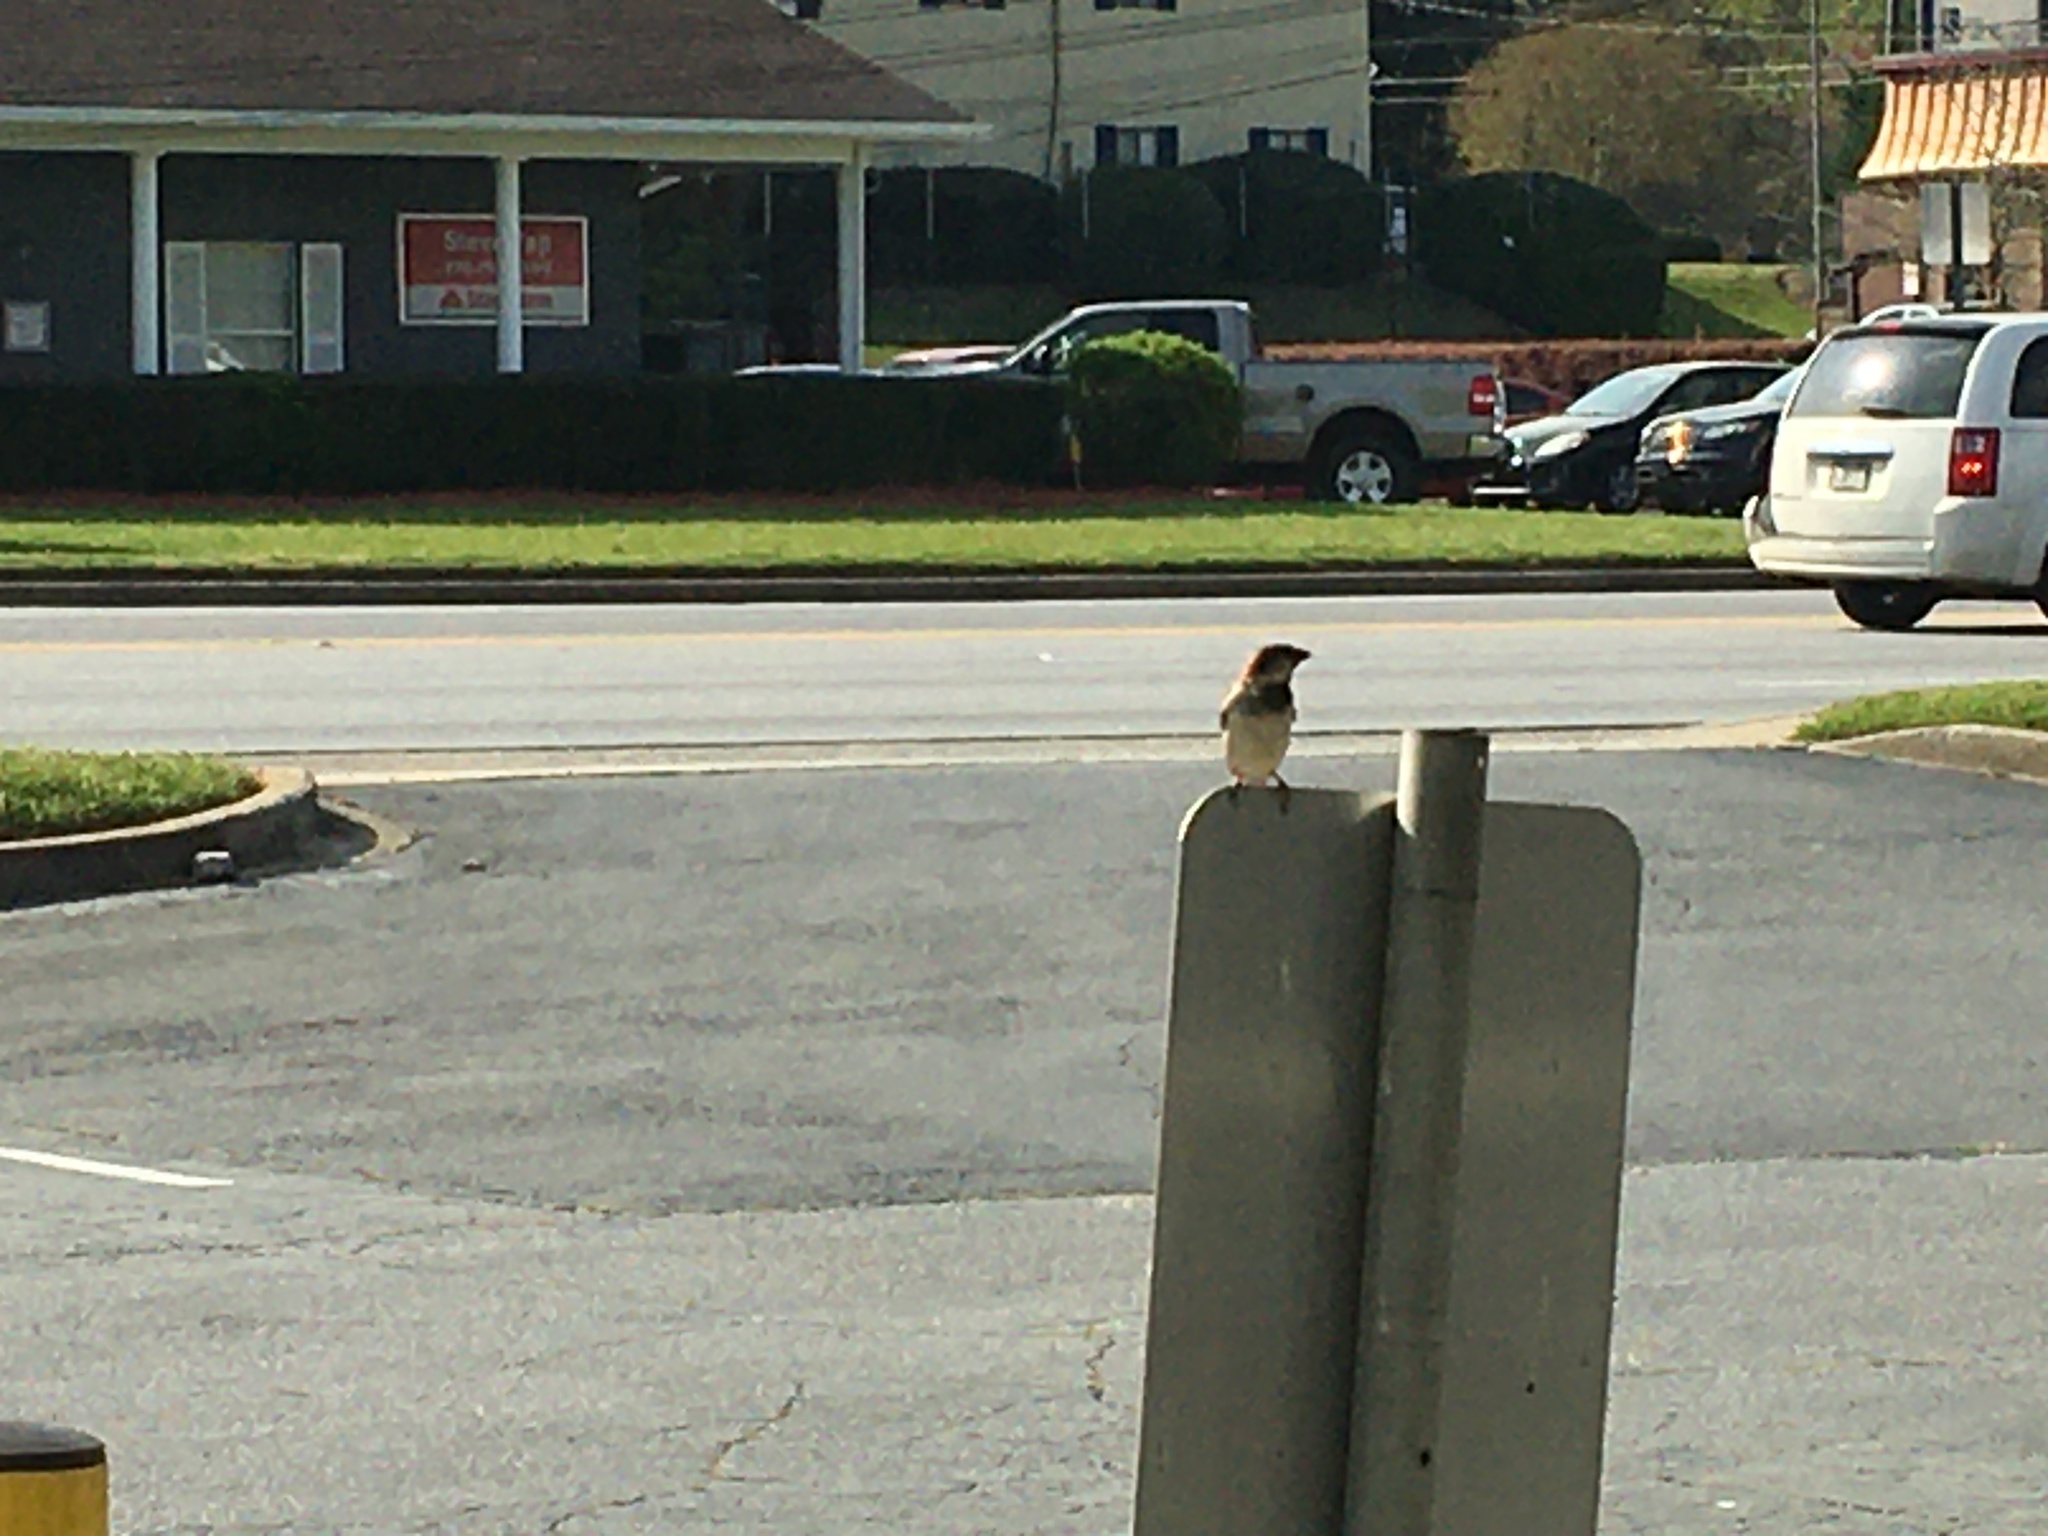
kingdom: Animalia
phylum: Chordata
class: Aves
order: Passeriformes
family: Passeridae
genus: Passer
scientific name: Passer domesticus
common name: House sparrow
